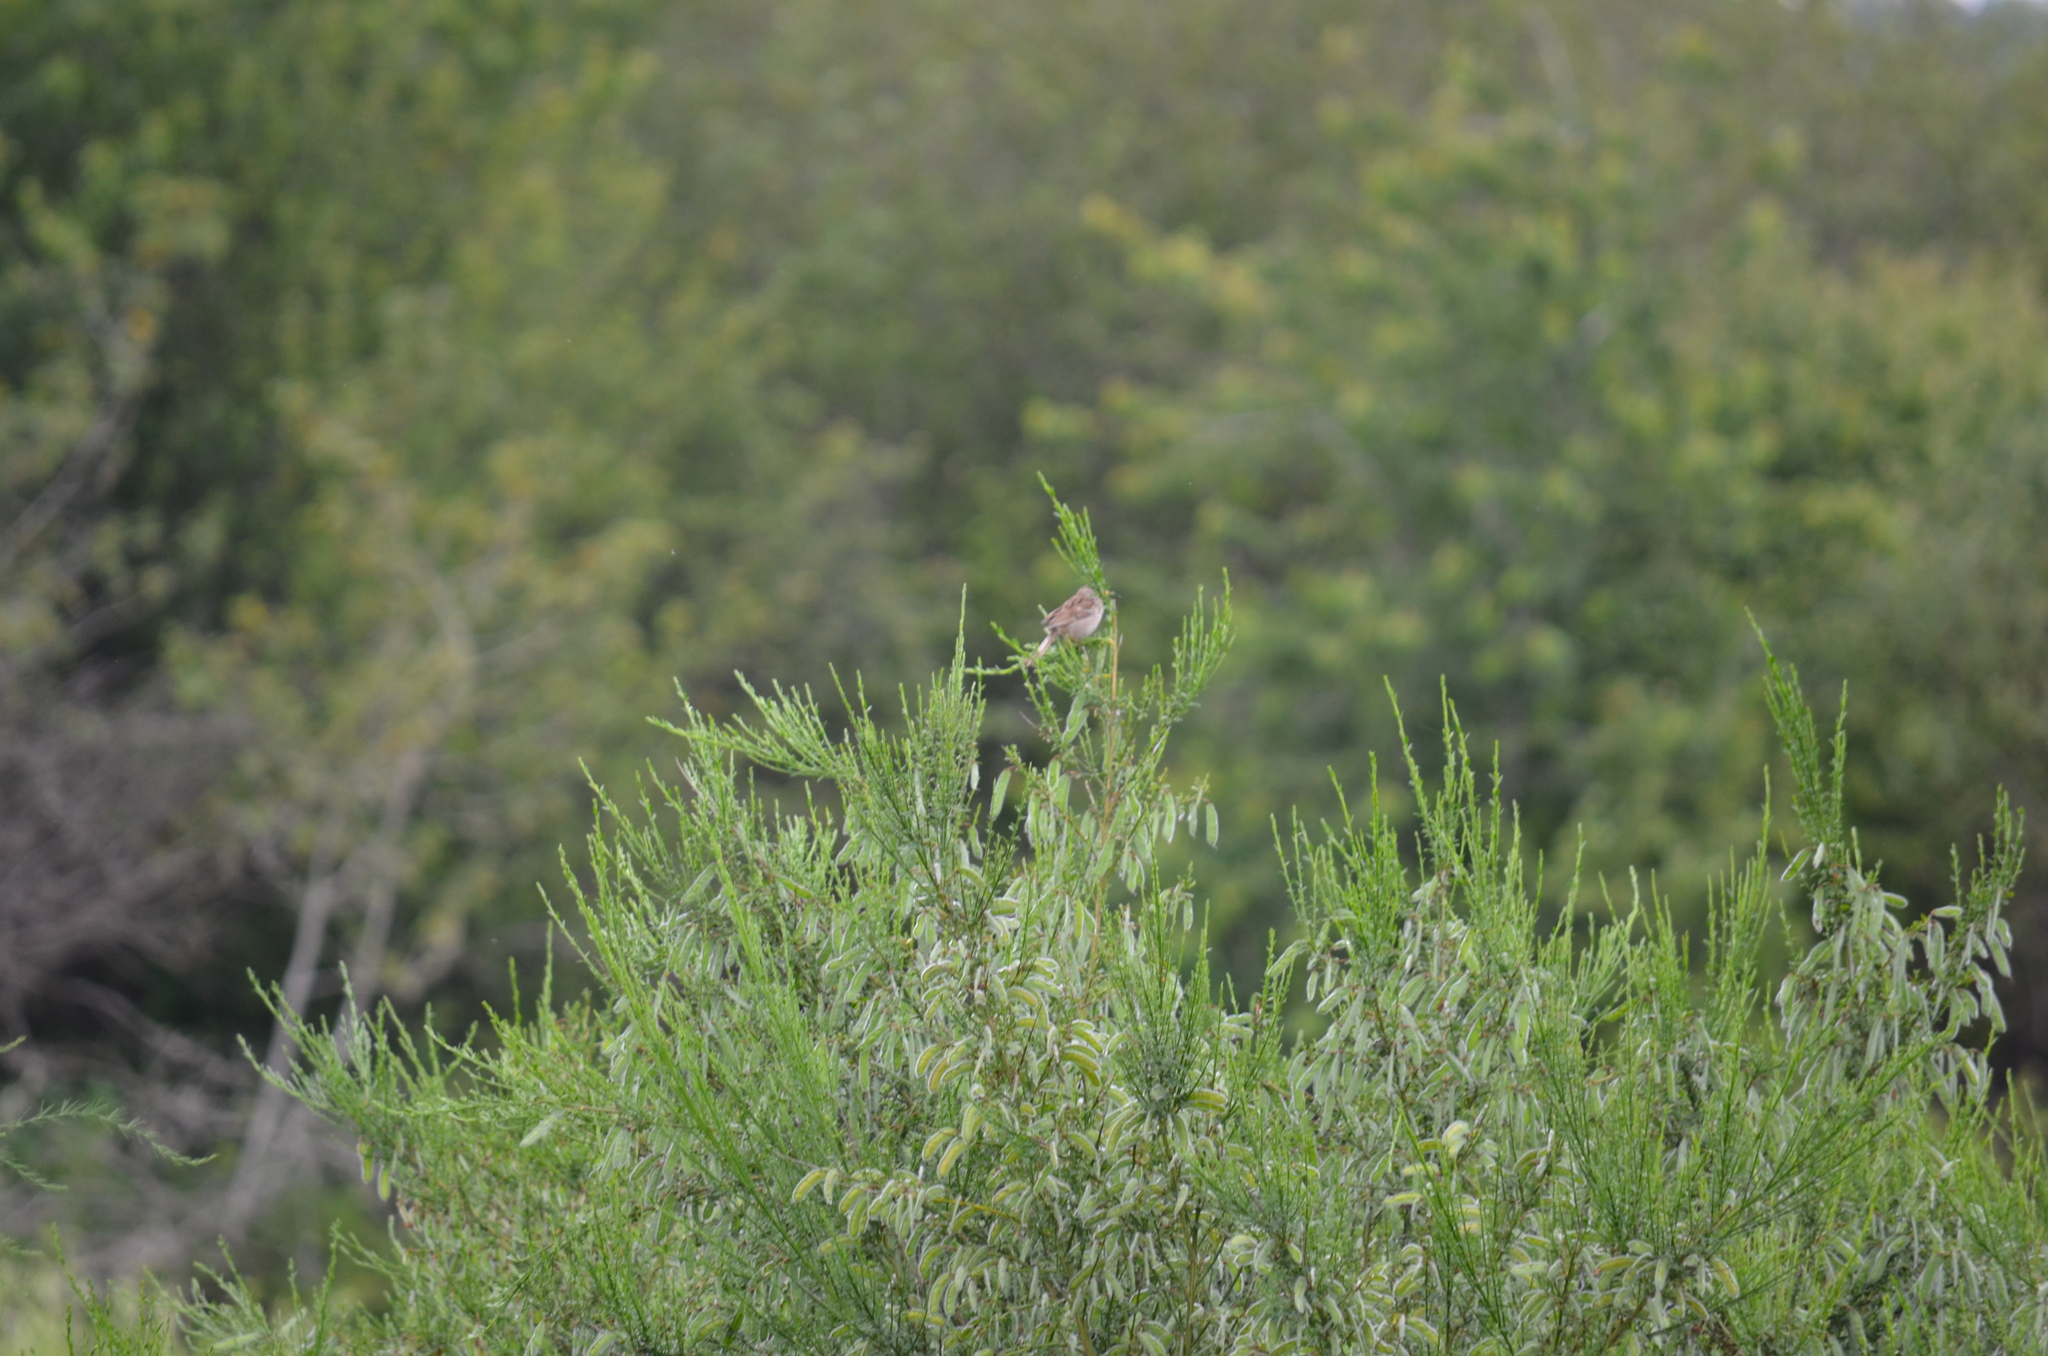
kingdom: Animalia
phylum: Chordata
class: Aves
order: Passeriformes
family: Passerellidae
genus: Zonotrichia
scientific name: Zonotrichia leucophrys
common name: White-crowned sparrow
